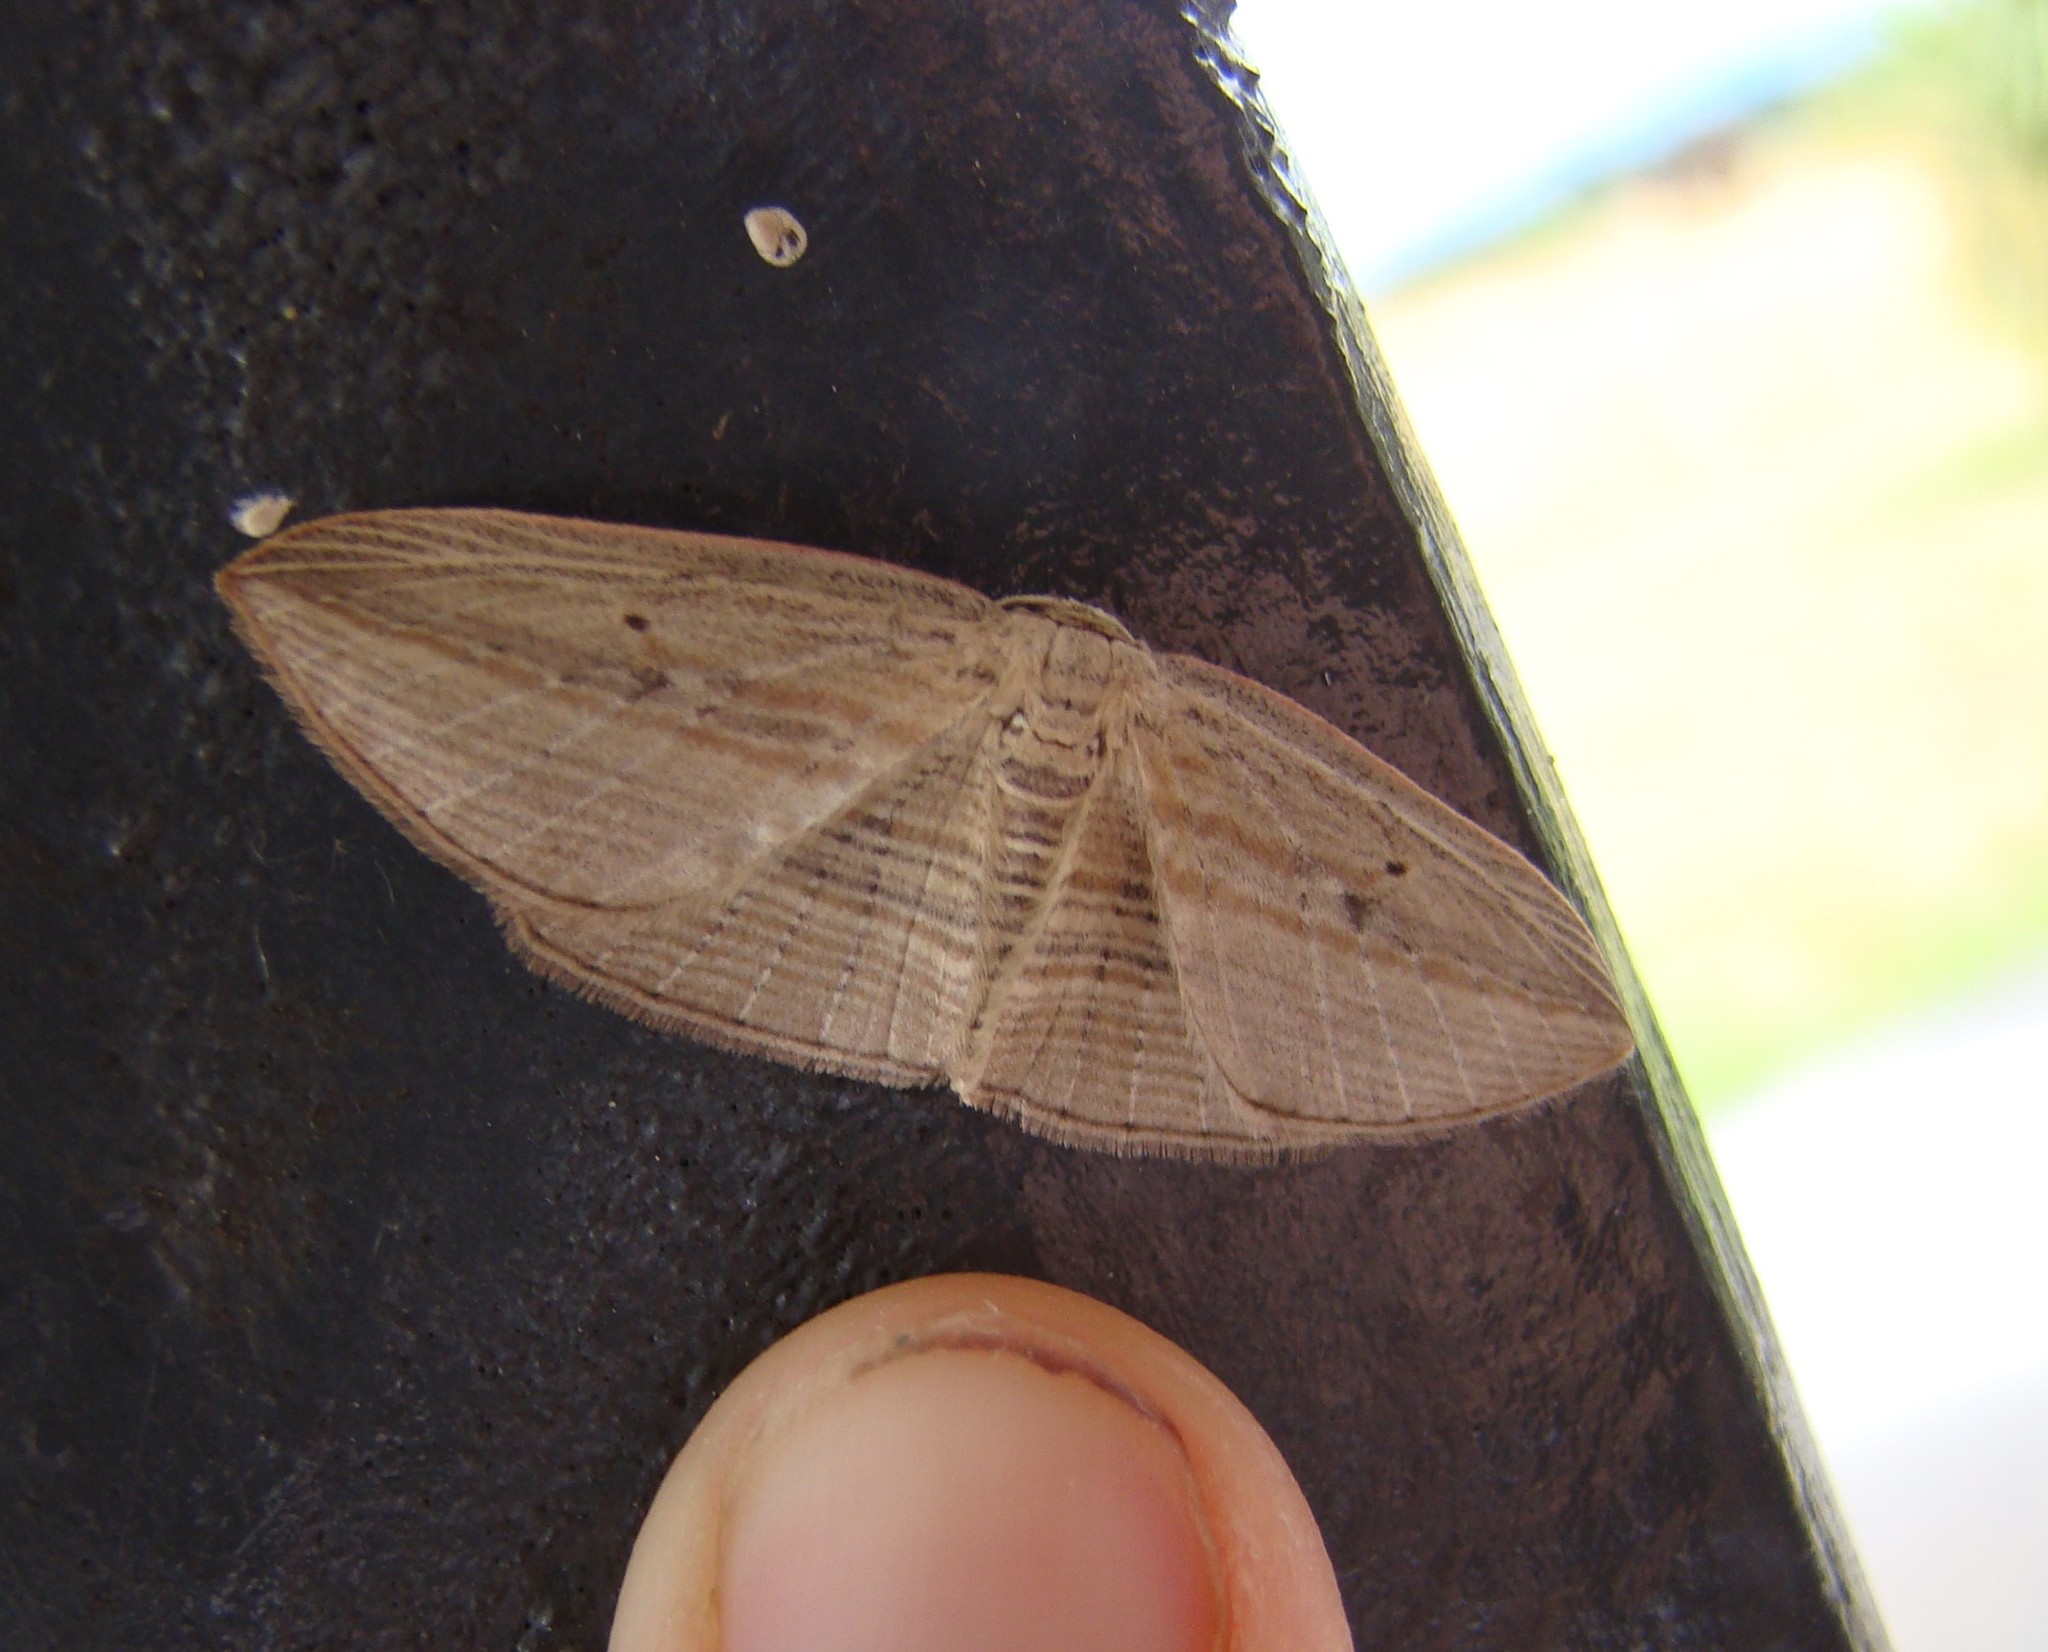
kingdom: Animalia
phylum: Arthropoda
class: Insecta
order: Lepidoptera
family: Geometridae
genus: Epiphryne
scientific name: Epiphryne verriculata
